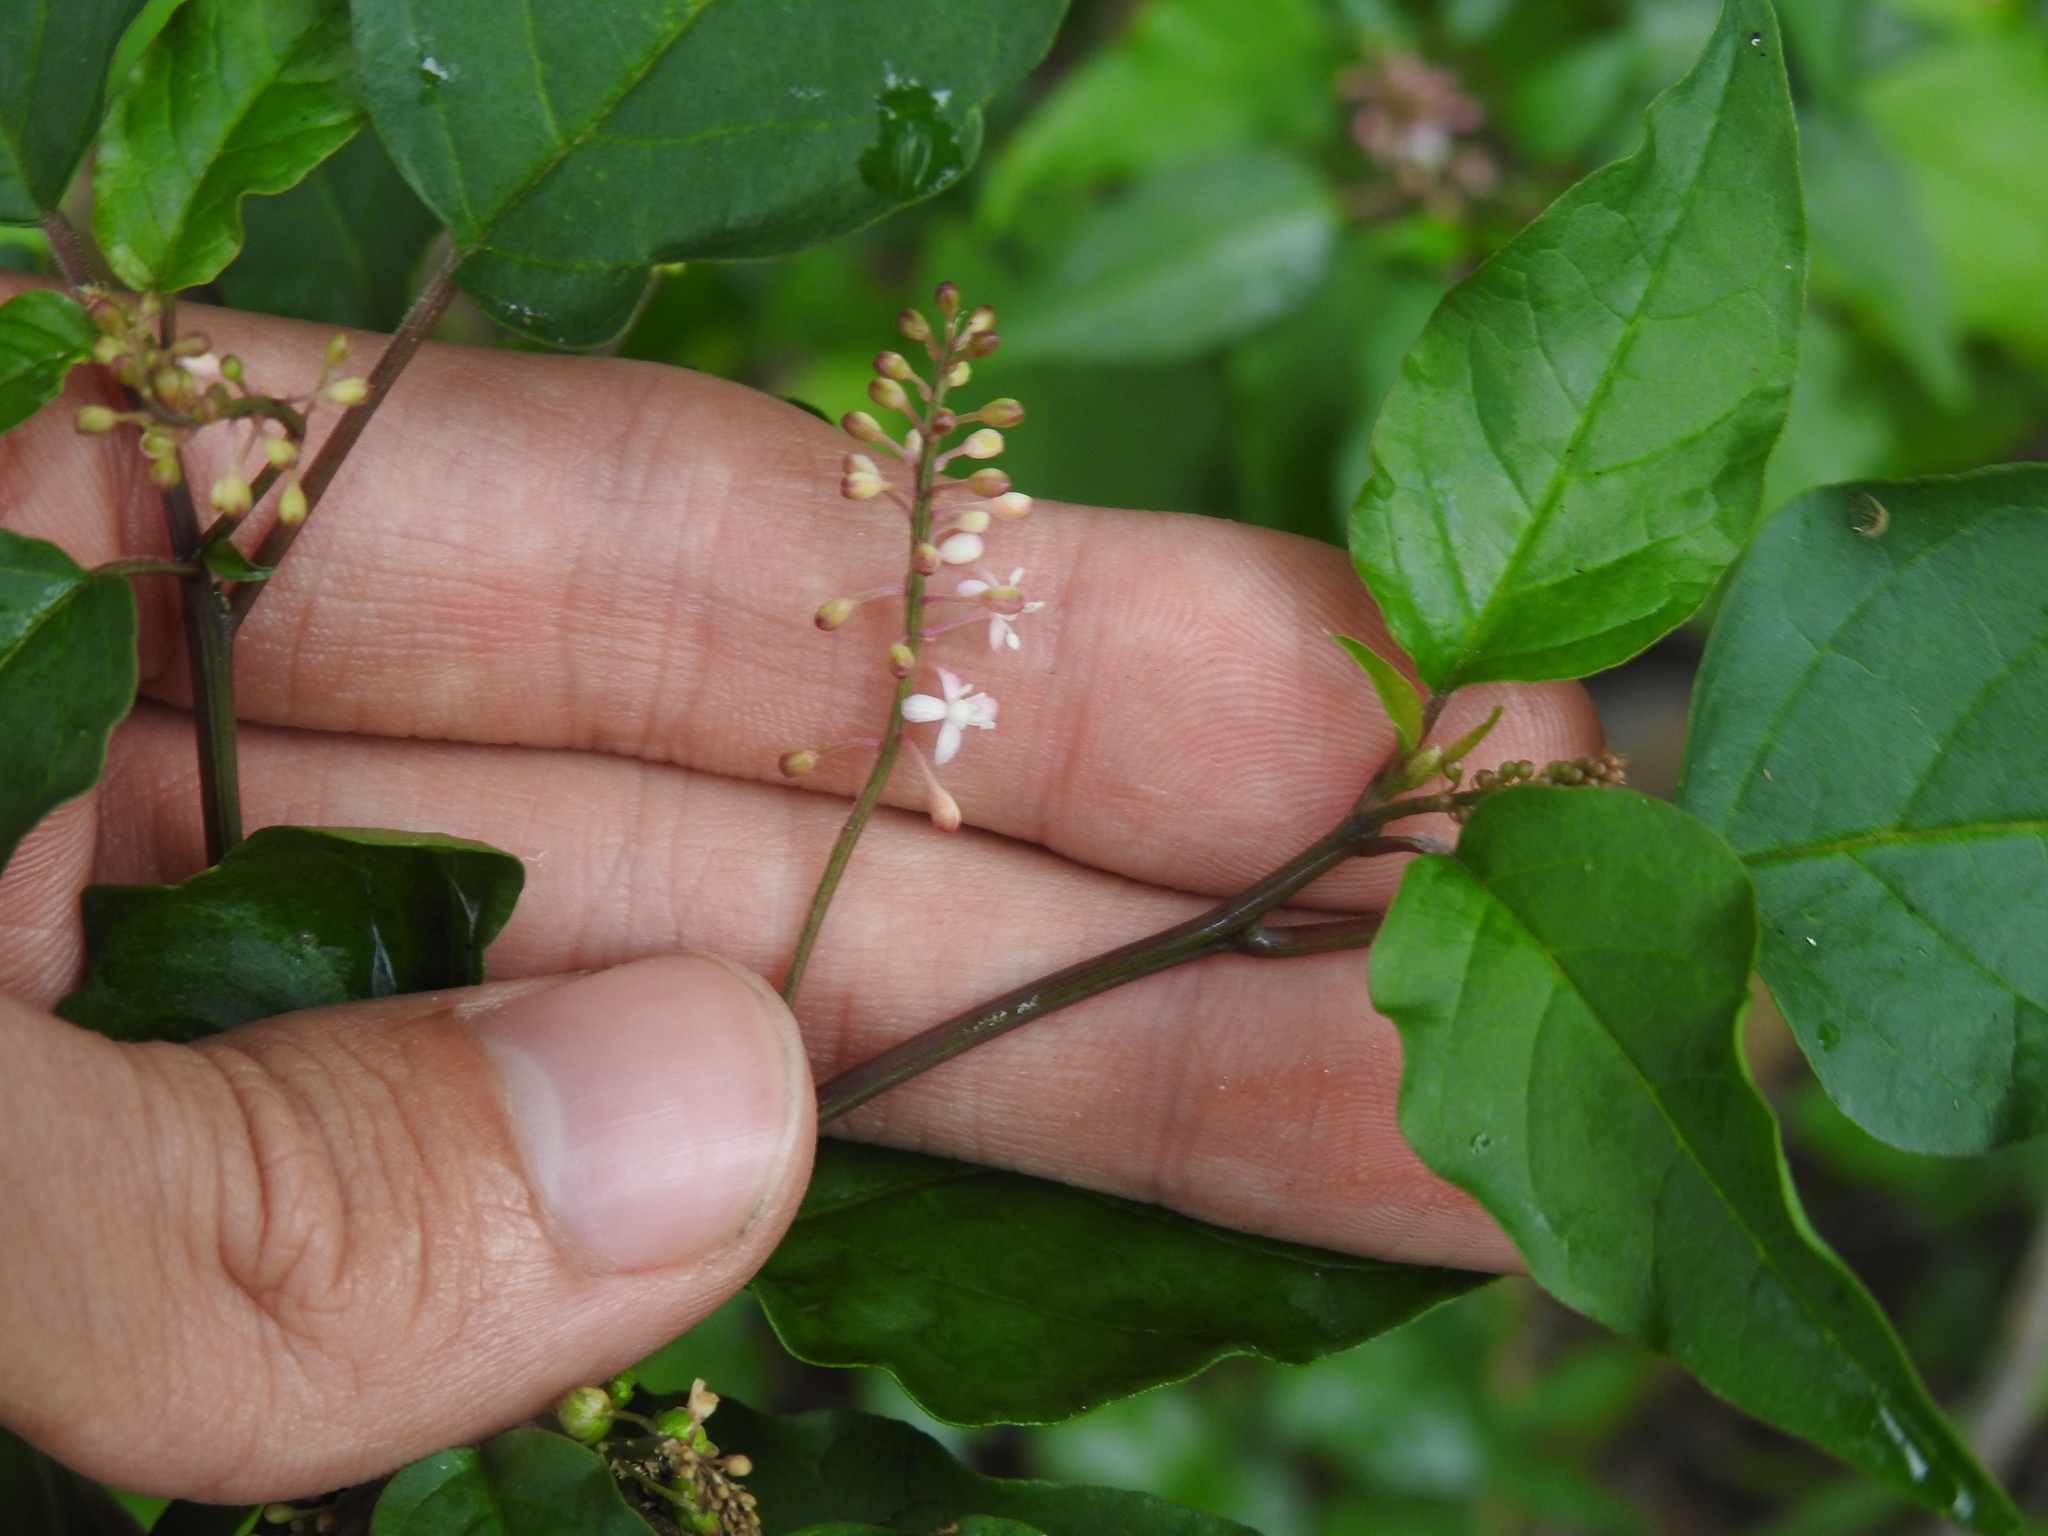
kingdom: Plantae
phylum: Tracheophyta
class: Magnoliopsida
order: Caryophyllales
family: Phytolaccaceae
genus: Rivina
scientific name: Rivina humilis
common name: Rougeplant
